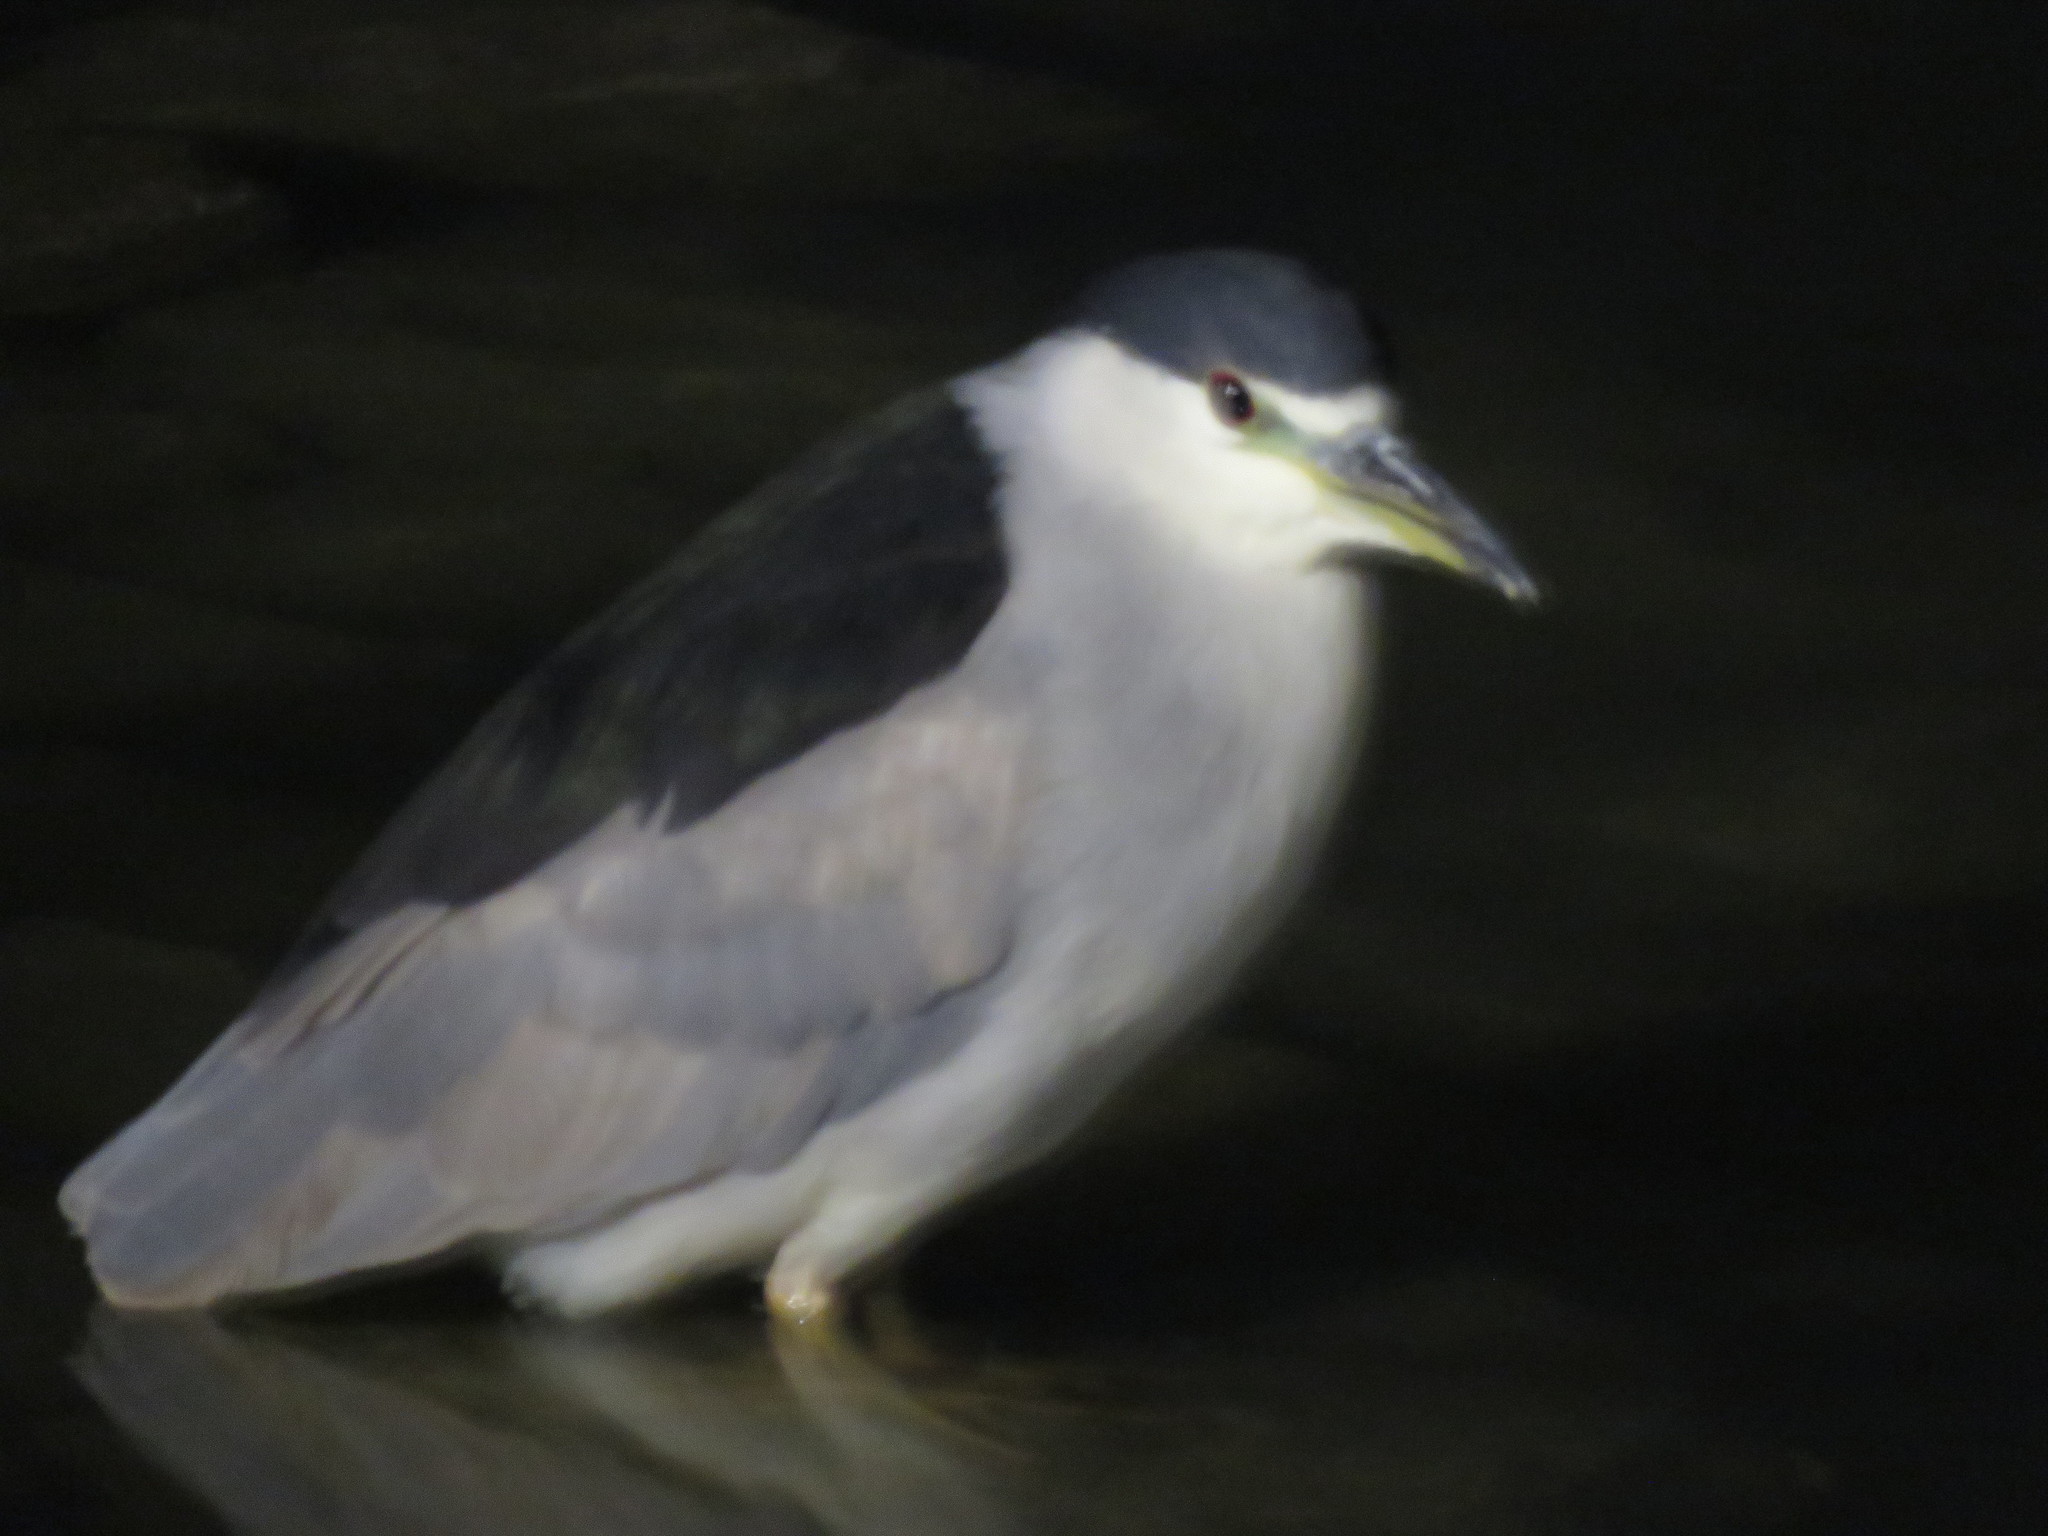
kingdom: Animalia
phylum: Chordata
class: Aves
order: Pelecaniformes
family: Ardeidae
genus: Nycticorax
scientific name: Nycticorax nycticorax
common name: Black-crowned night heron
